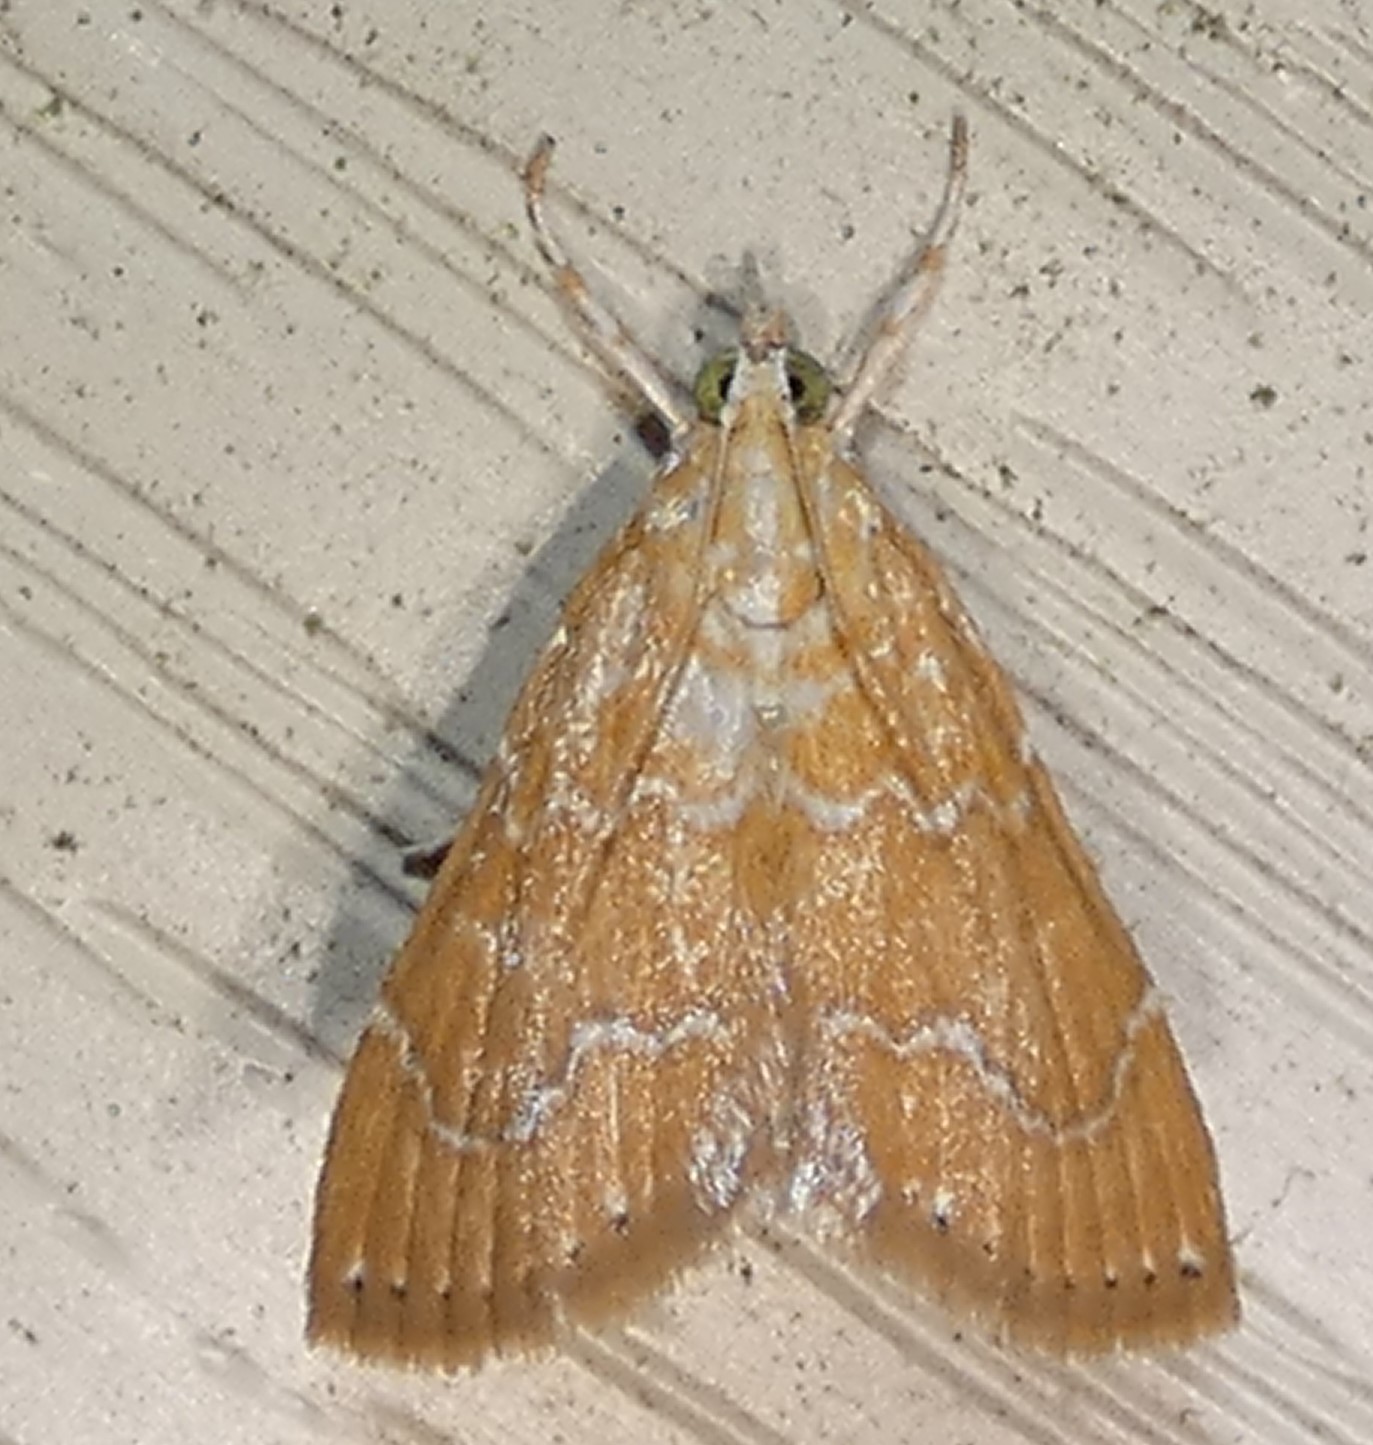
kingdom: Animalia
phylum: Arthropoda
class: Insecta
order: Lepidoptera
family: Crambidae
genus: Glaphyria
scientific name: Glaphyria sesquistrialis
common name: White-roped glaphyria
